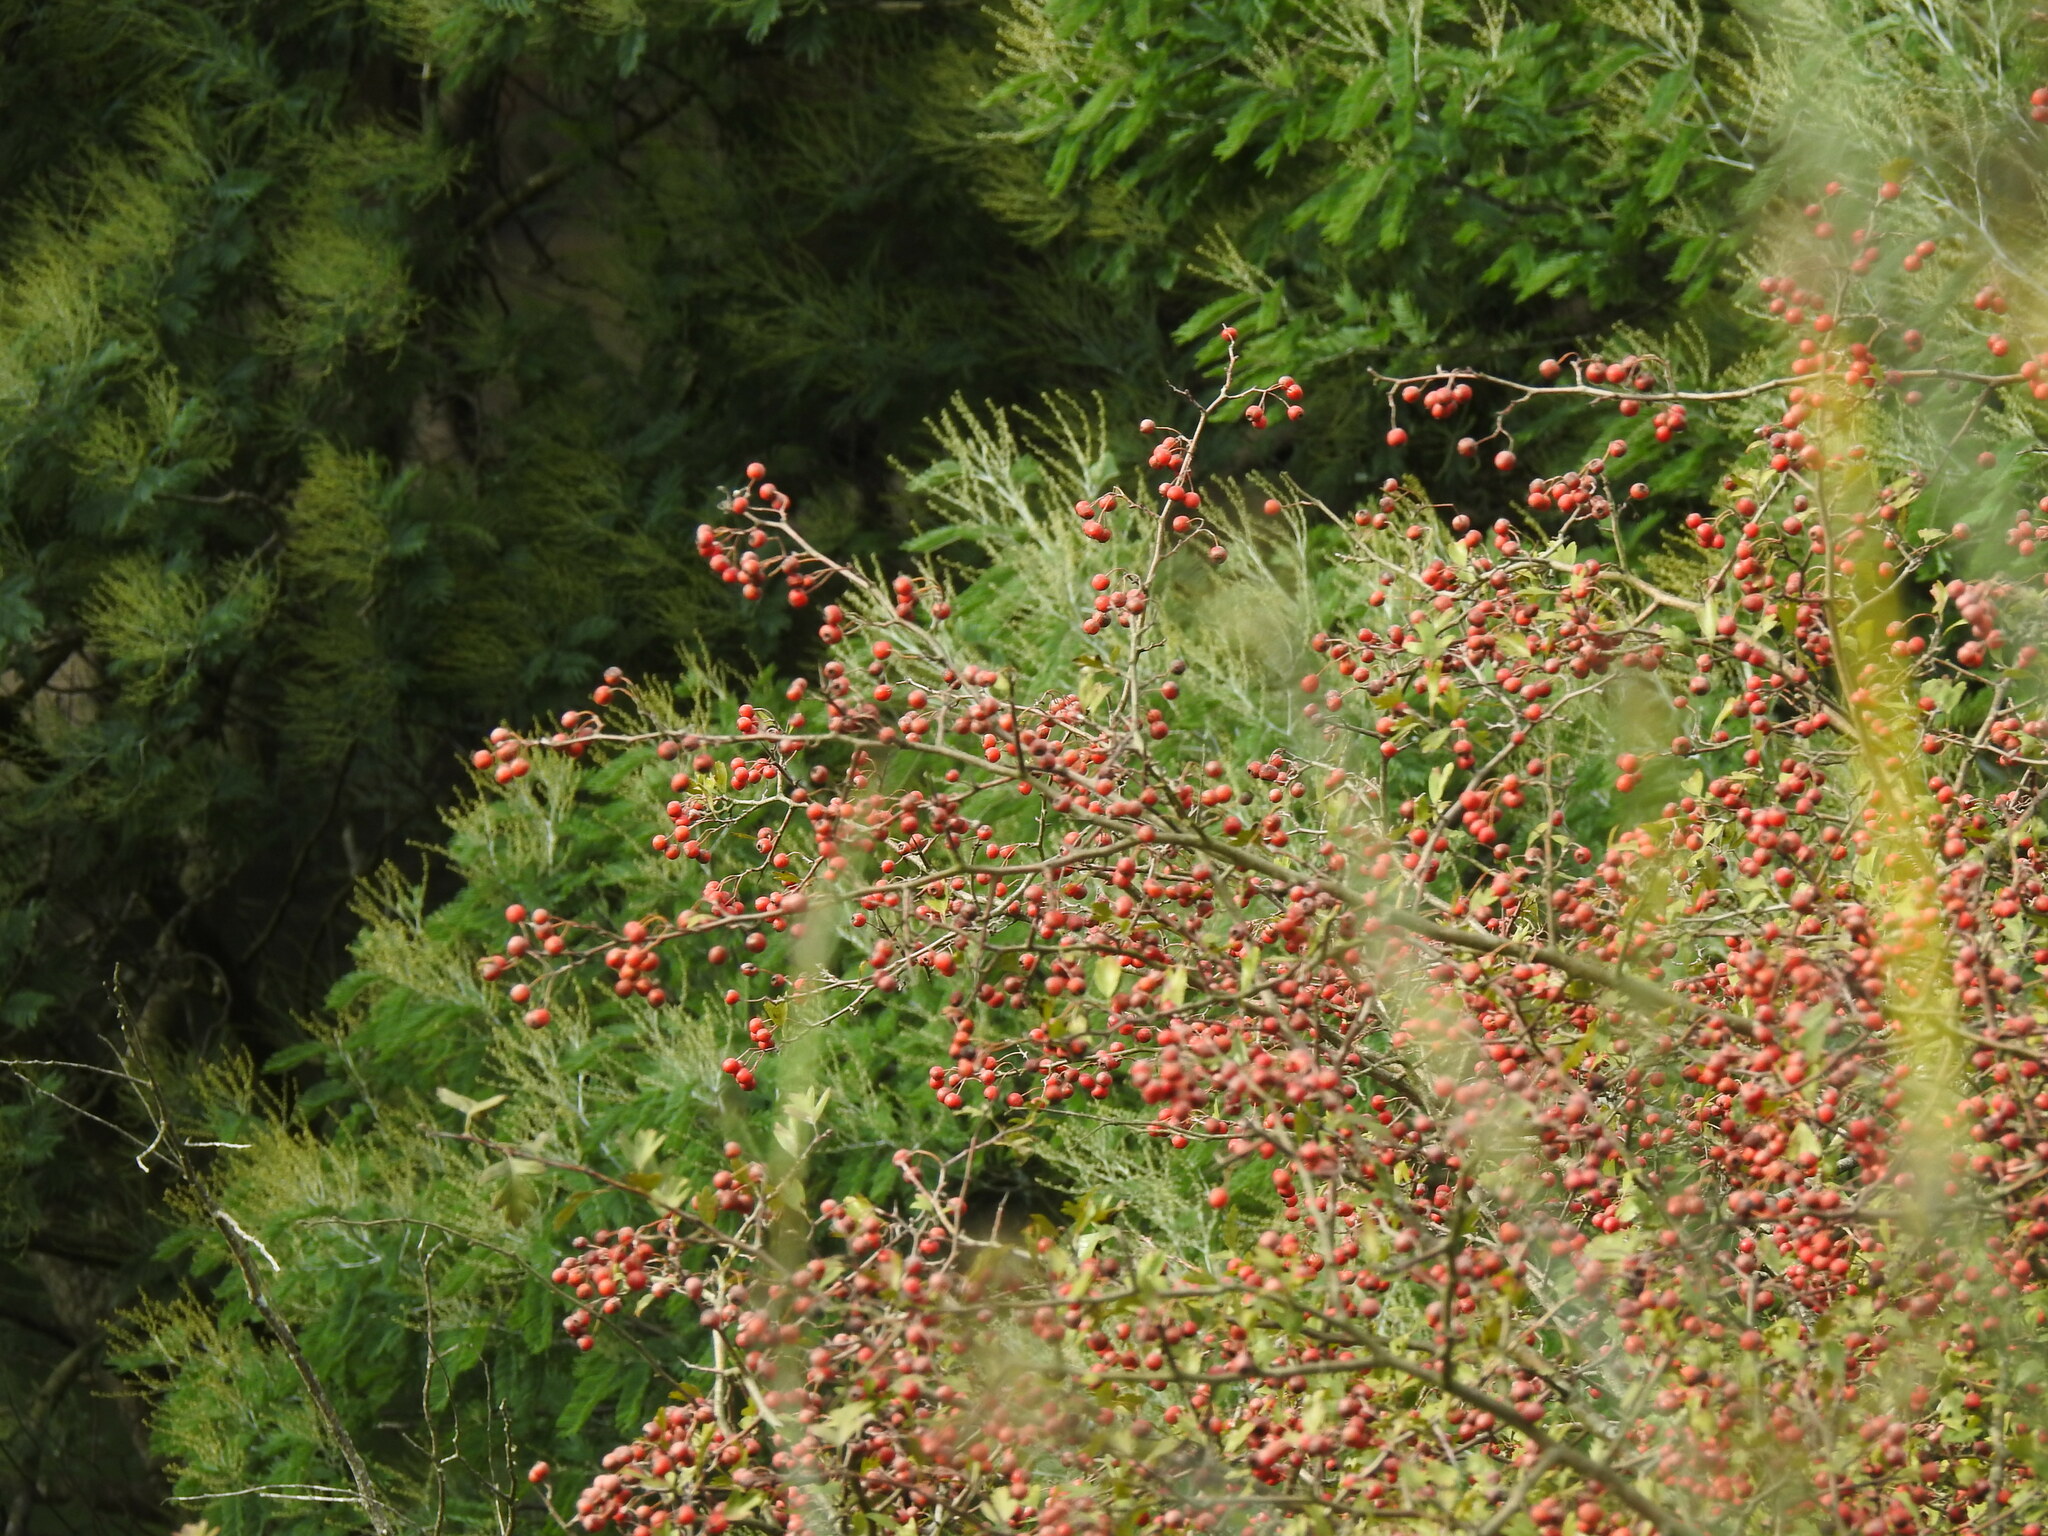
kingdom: Plantae
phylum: Tracheophyta
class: Magnoliopsida
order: Rosales
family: Rosaceae
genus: Crataegus
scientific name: Crataegus monogyna
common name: Hawthorn
